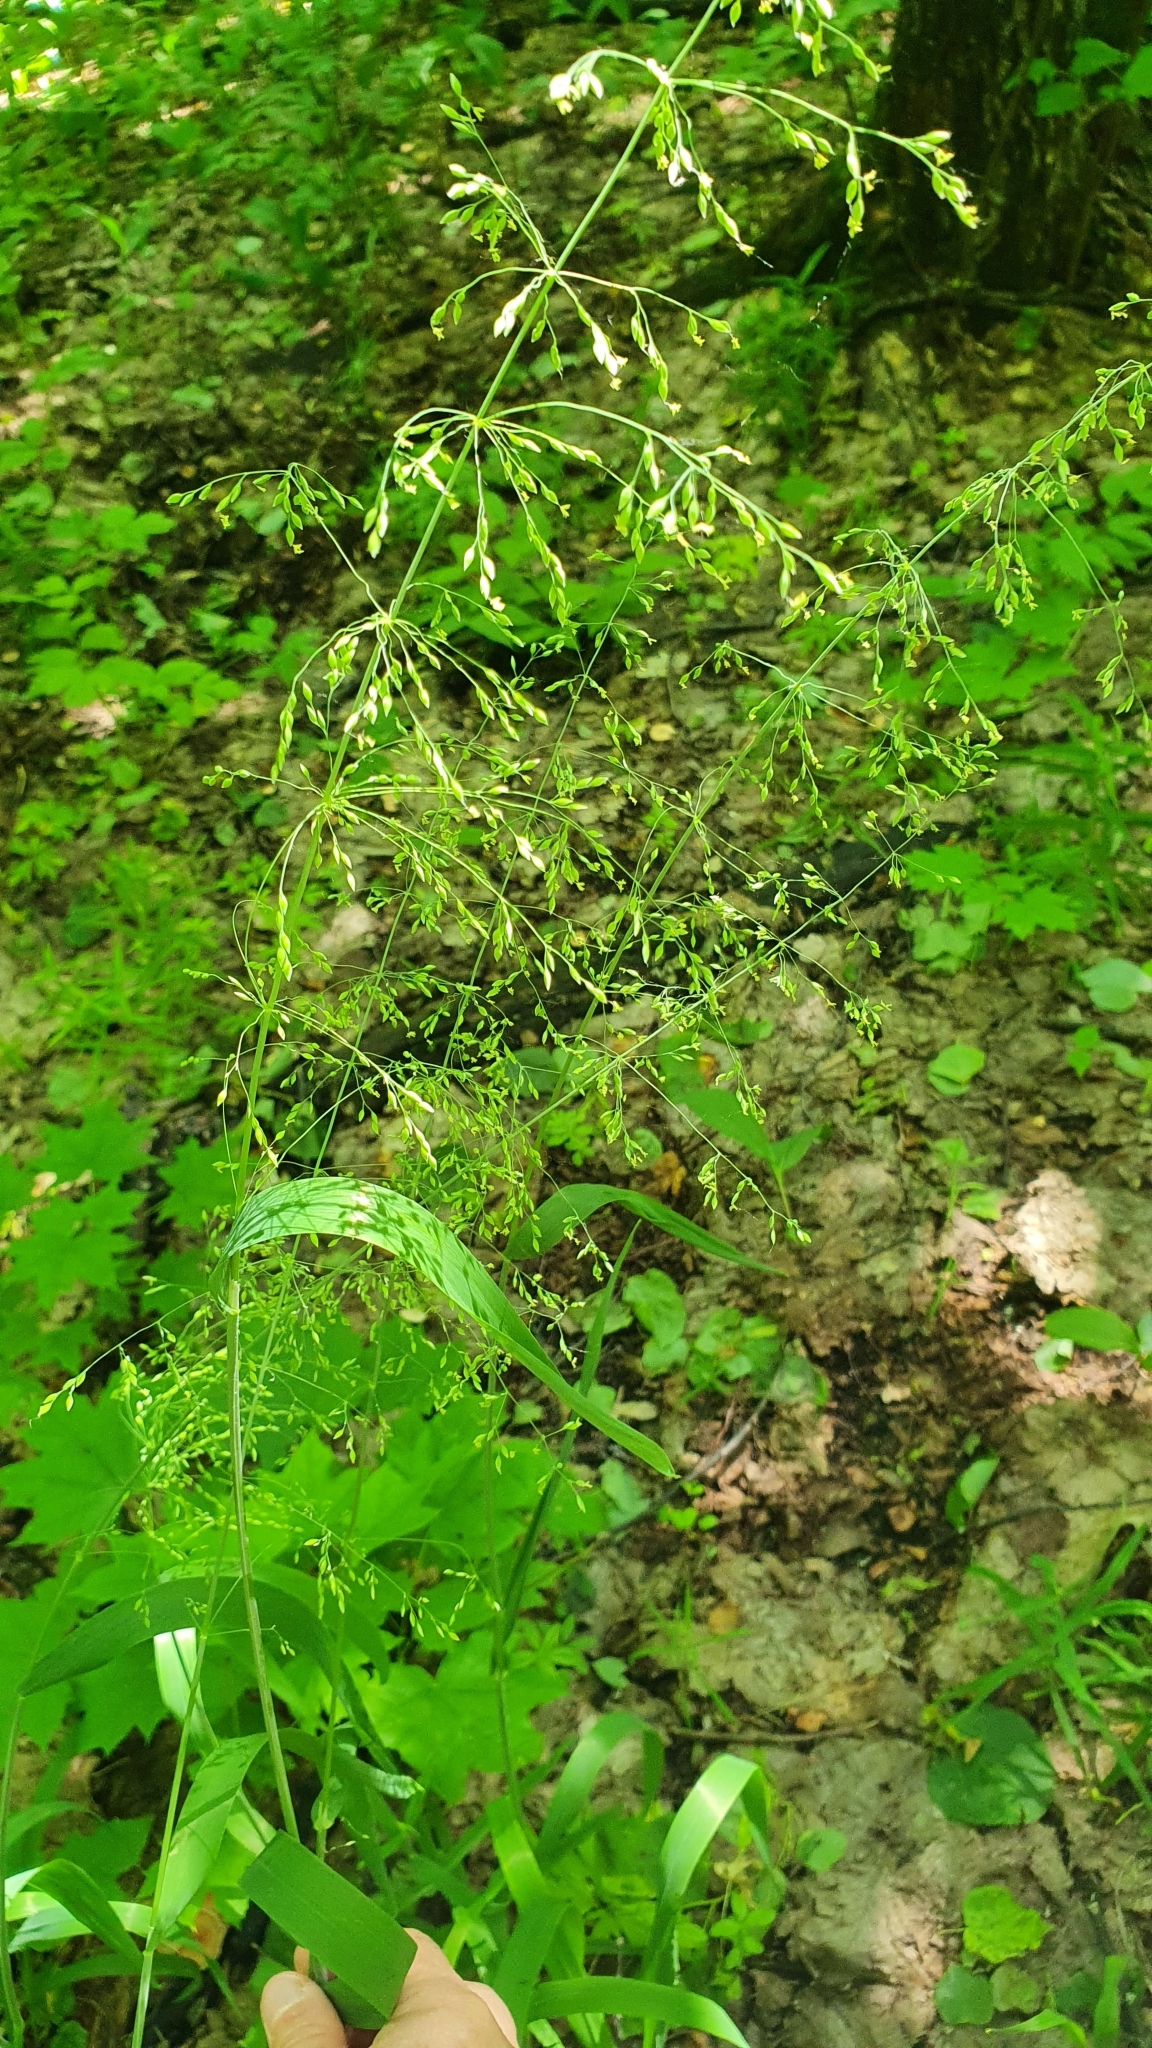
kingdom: Plantae
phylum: Tracheophyta
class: Liliopsida
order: Poales
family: Poaceae
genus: Milium
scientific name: Milium effusum
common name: Wood millet
